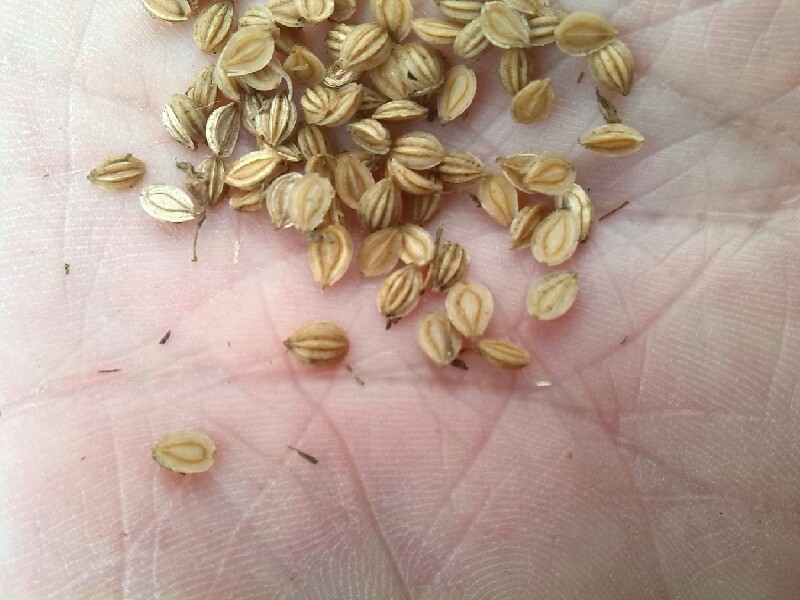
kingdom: Plantae
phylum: Tracheophyta
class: Magnoliopsida
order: Apiales
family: Apiaceae
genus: Aethusa
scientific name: Aethusa cynapium
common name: Fool's parsley
